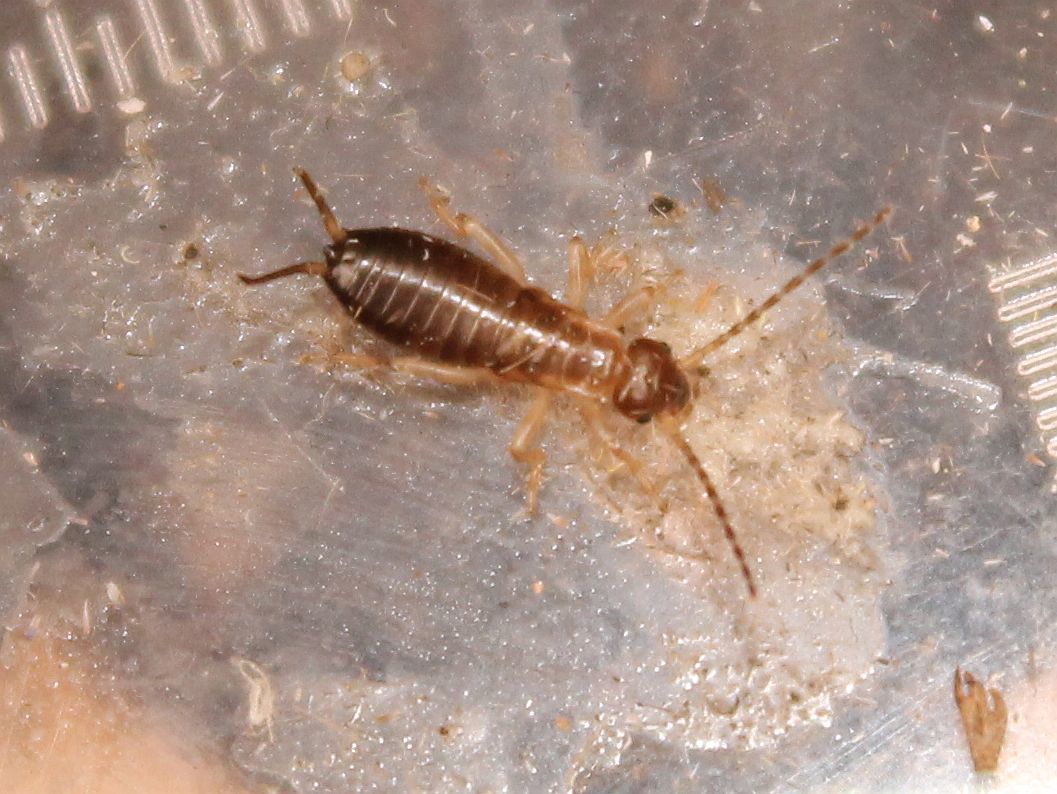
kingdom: Animalia
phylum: Arthropoda
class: Insecta
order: Dermaptera
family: Forficulidae
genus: Forficula
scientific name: Forficula
